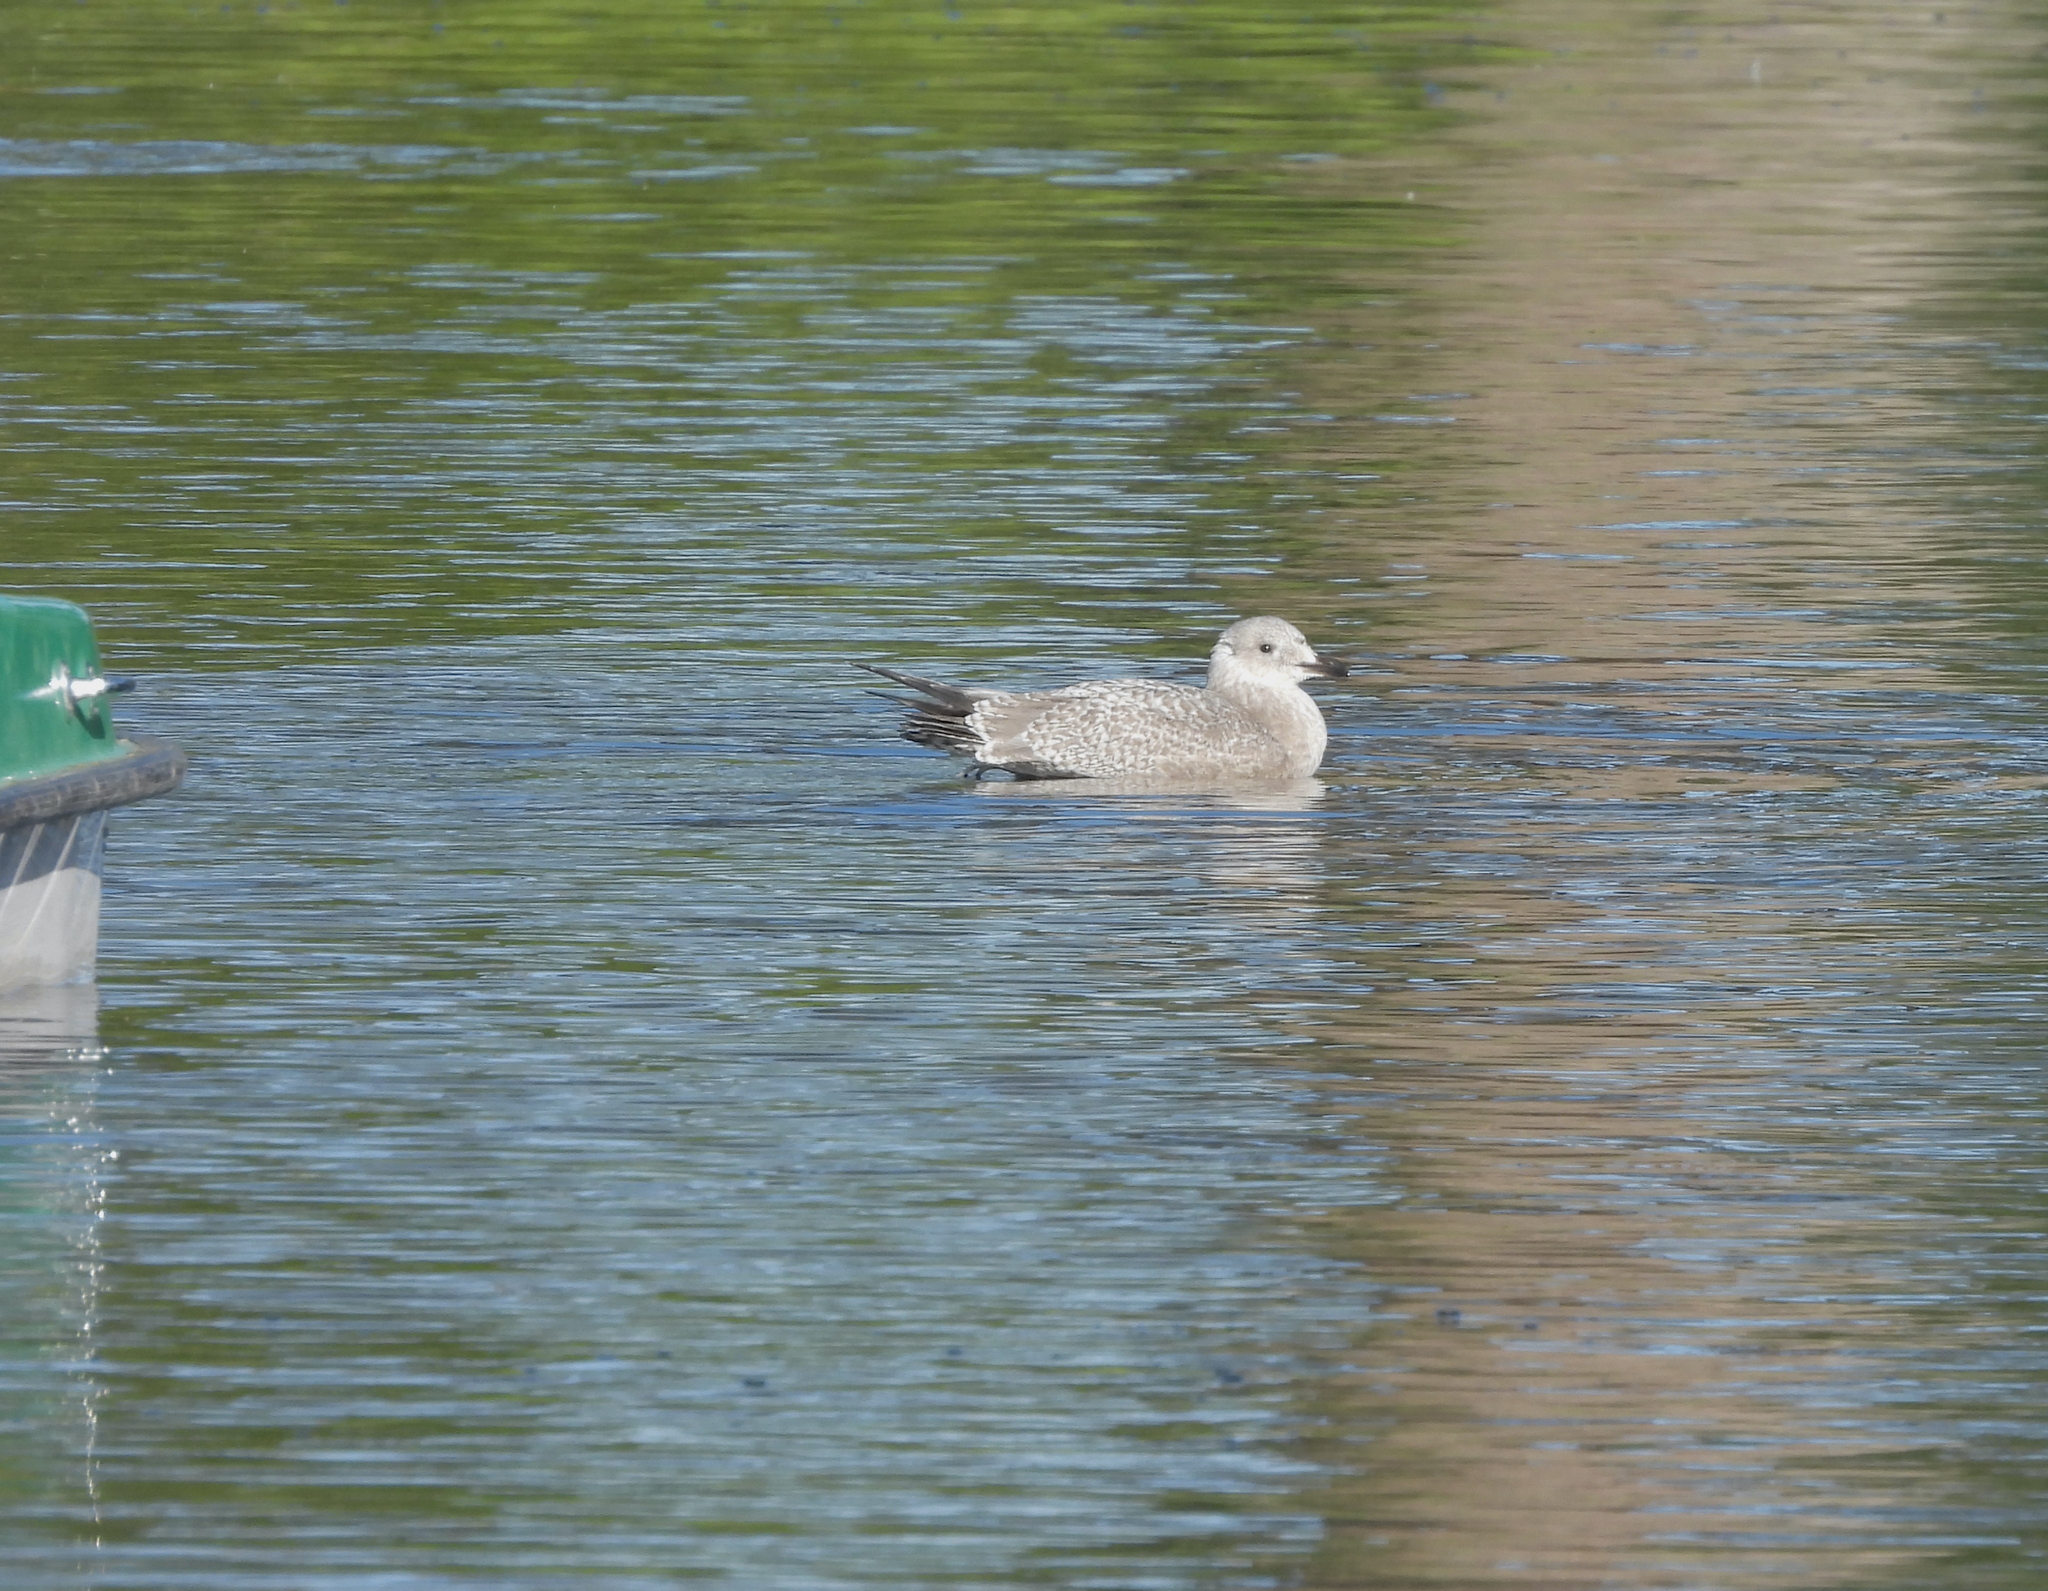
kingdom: Animalia
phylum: Chordata
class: Aves
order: Charadriiformes
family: Laridae
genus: Larus
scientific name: Larus glaucoides
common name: Iceland gull
